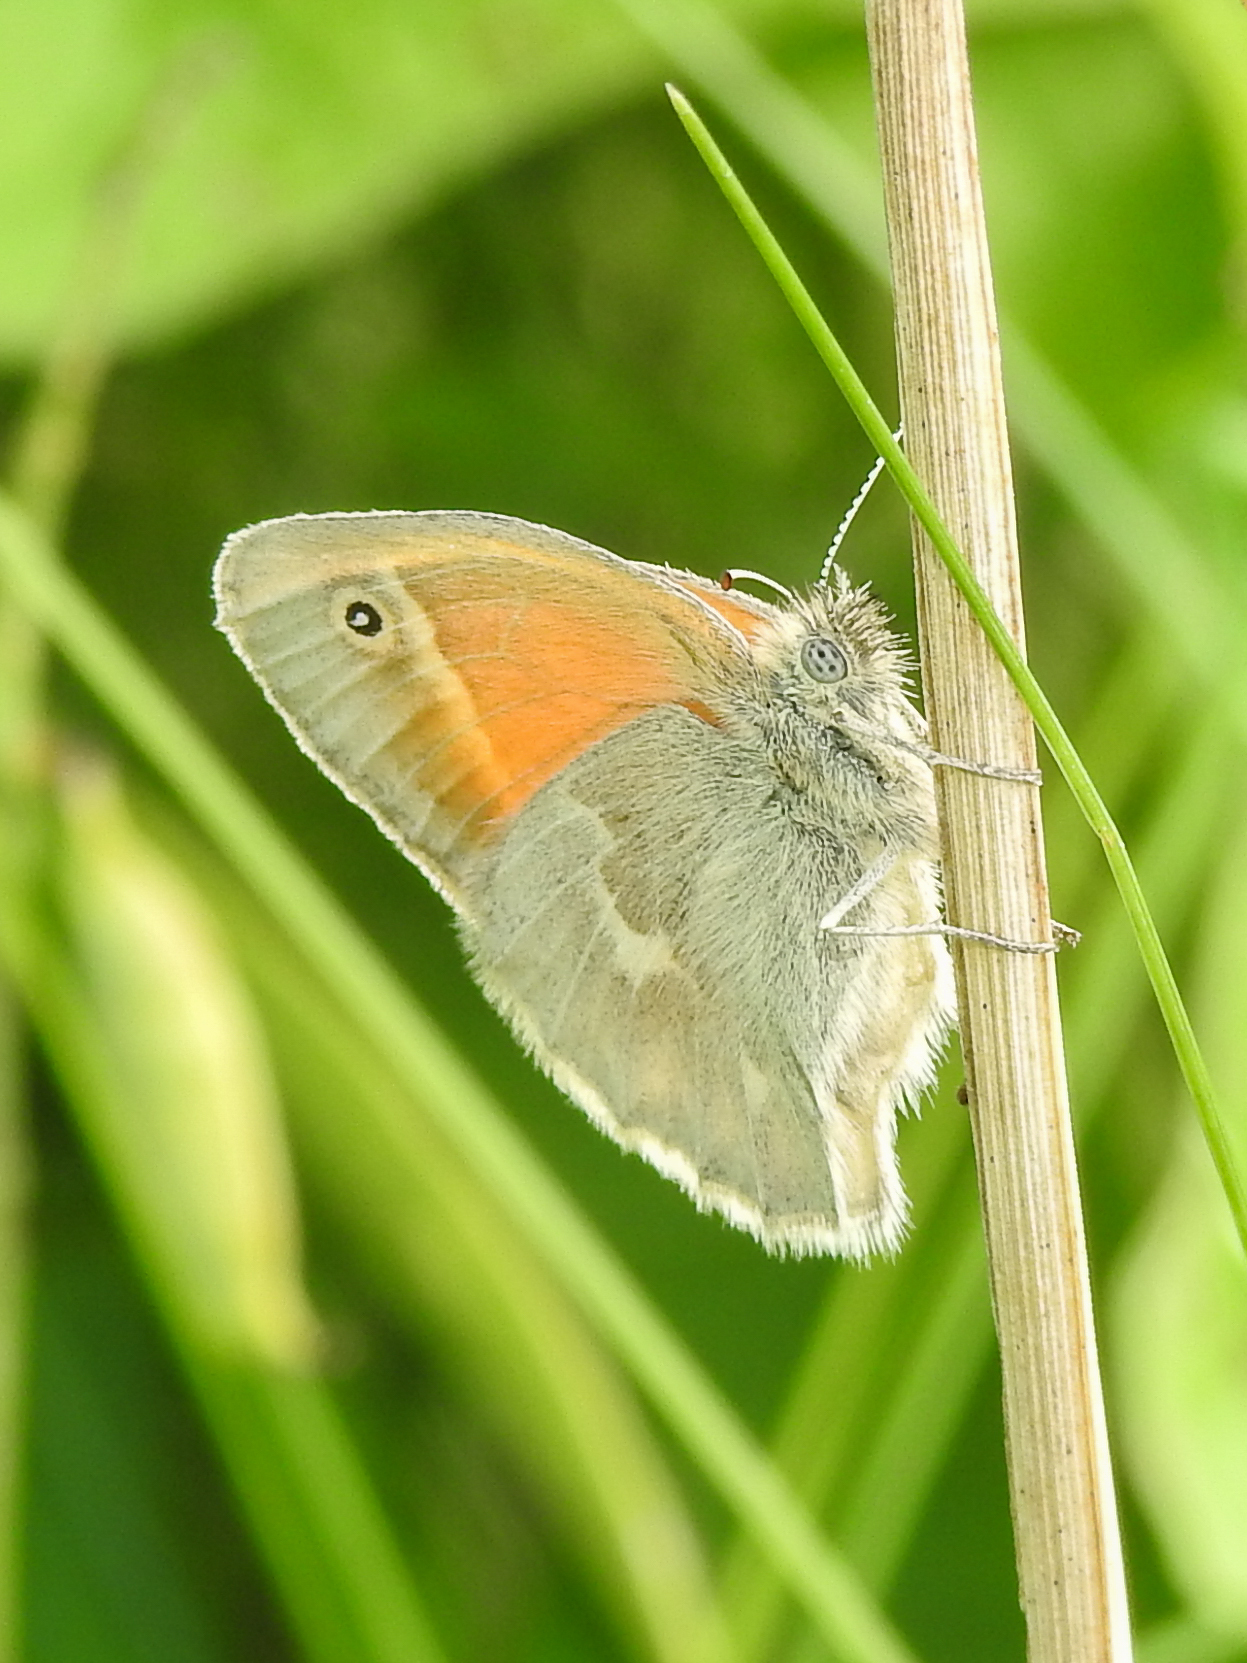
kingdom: Animalia
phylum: Arthropoda
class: Insecta
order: Lepidoptera
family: Nymphalidae
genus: Coenonympha
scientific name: Coenonympha california
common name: Common ringlet
